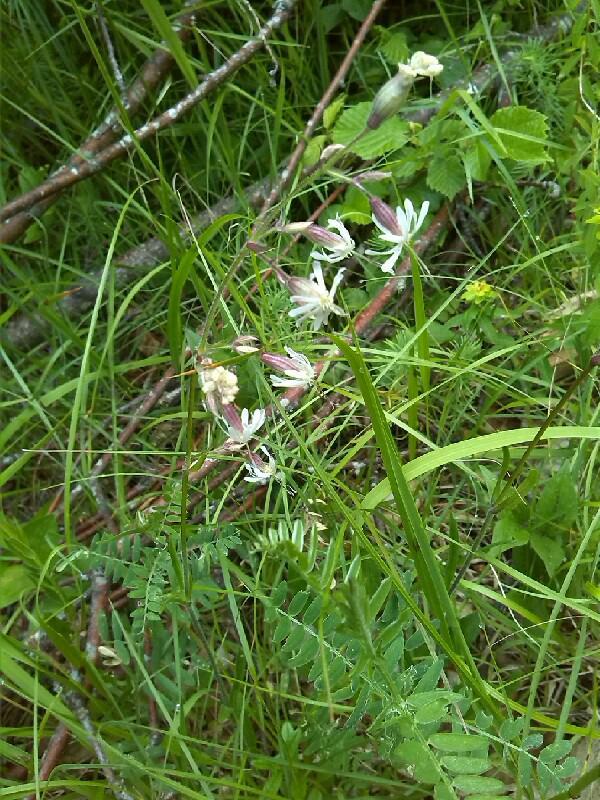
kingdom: Plantae
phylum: Tracheophyta
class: Magnoliopsida
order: Caryophyllales
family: Caryophyllaceae
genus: Silene
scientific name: Silene nutans
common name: Nottingham catchfly
